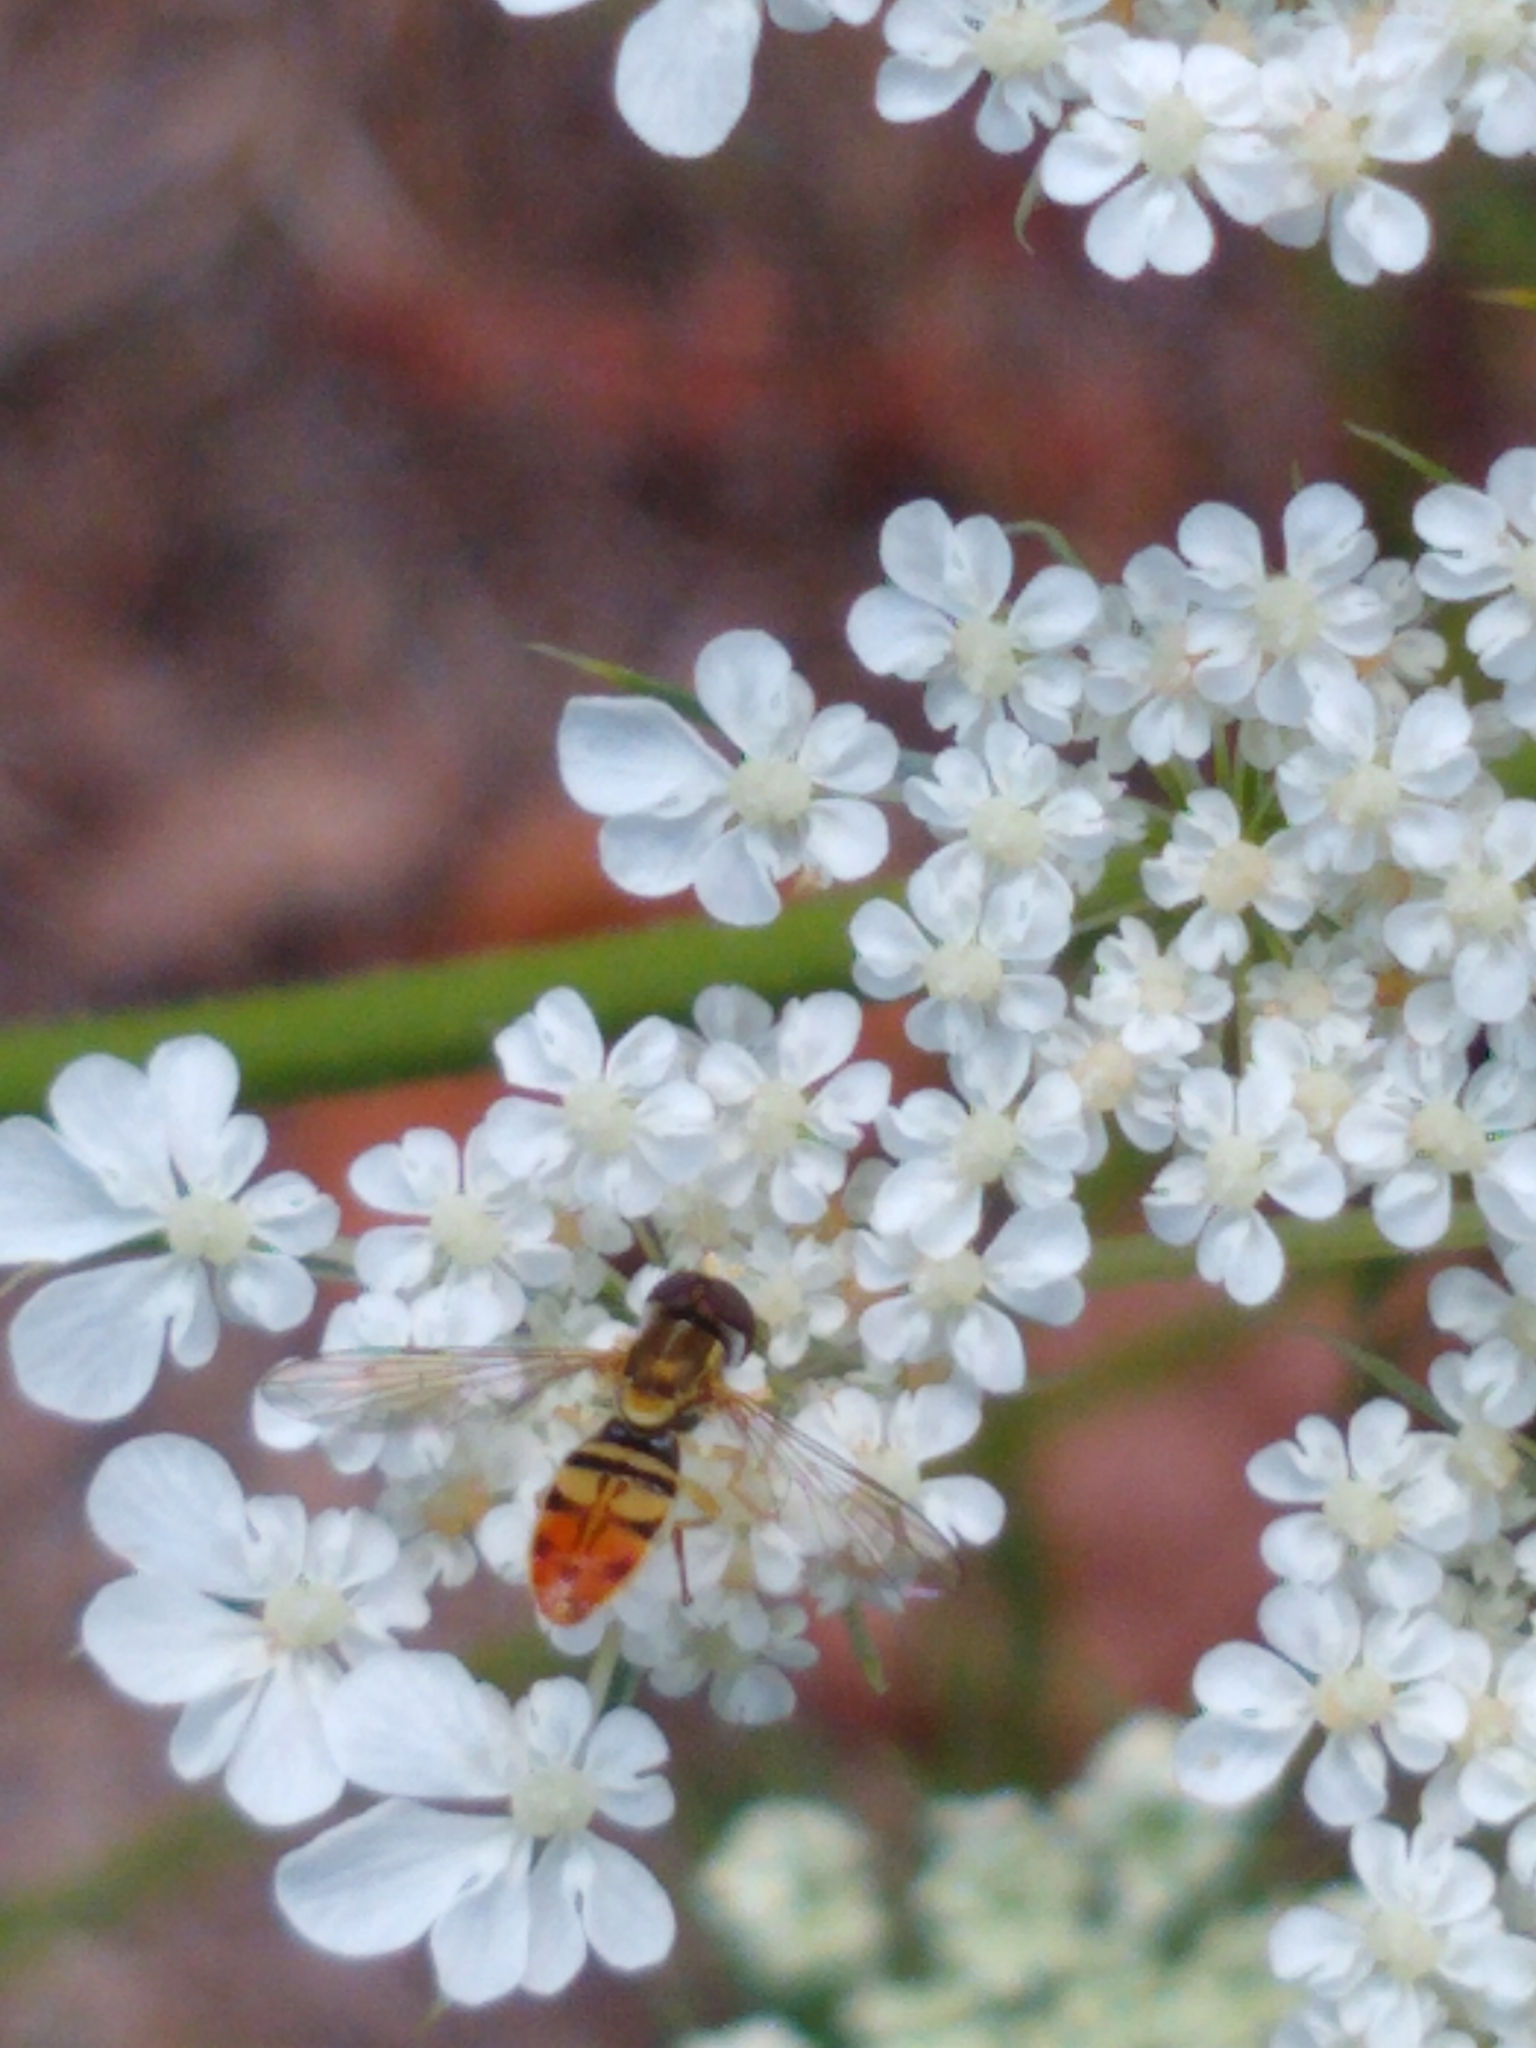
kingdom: Animalia
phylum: Arthropoda
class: Insecta
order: Diptera
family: Syrphidae
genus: Toxomerus
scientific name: Toxomerus marginatus
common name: Syrphid fly
